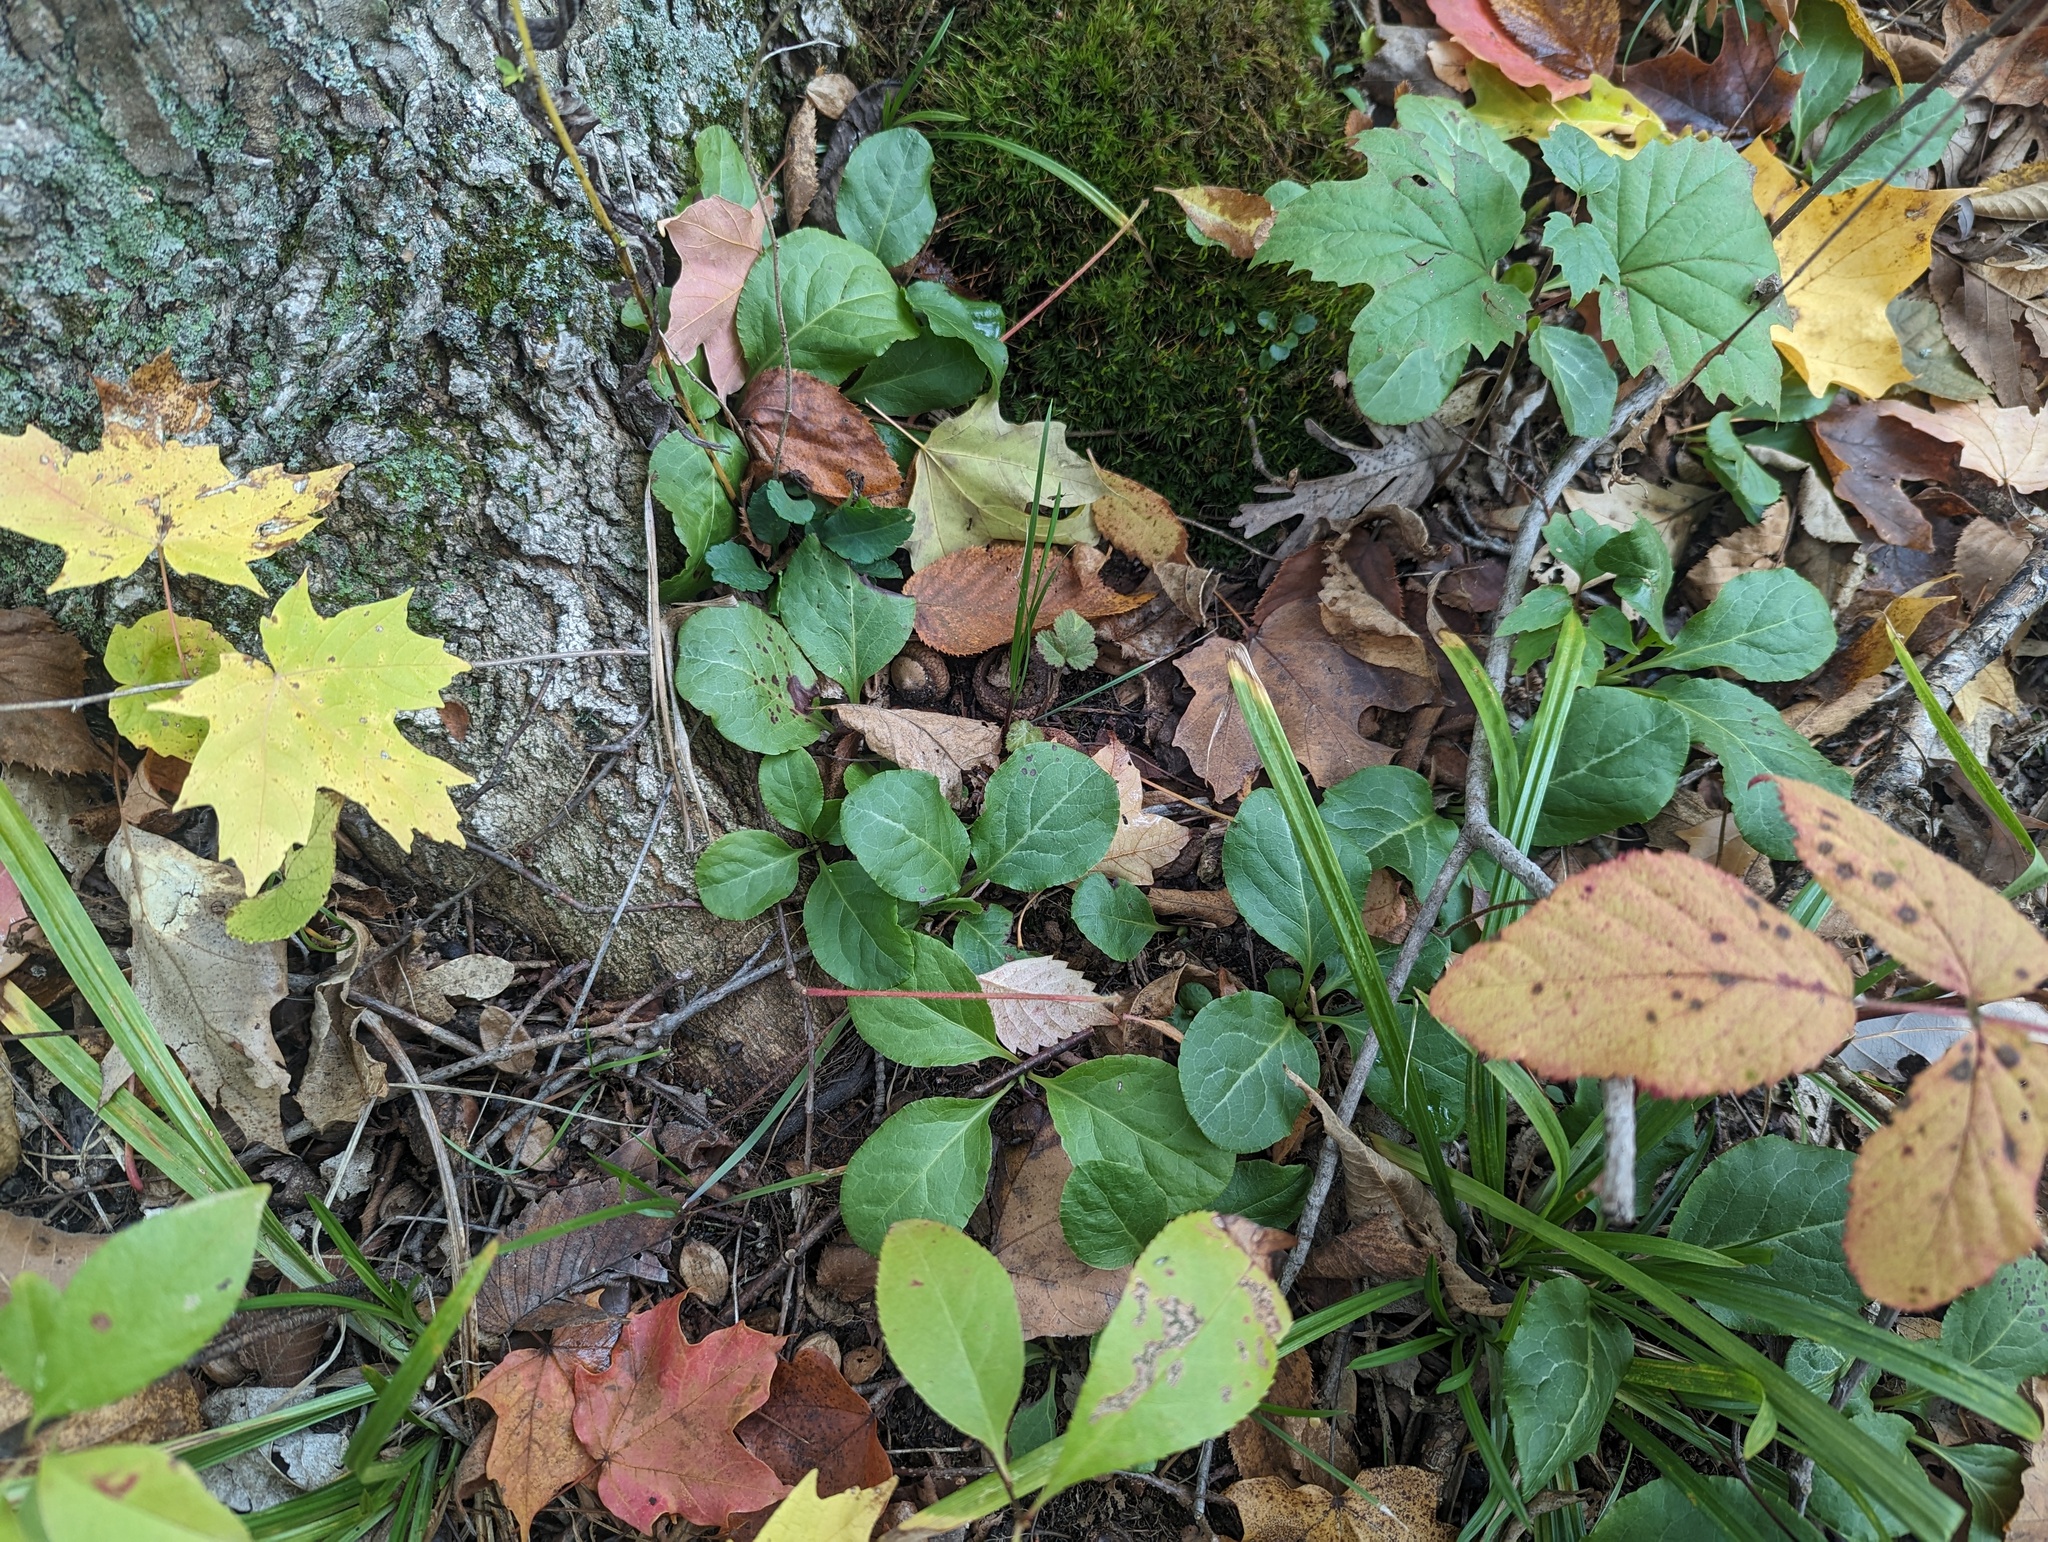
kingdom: Plantae
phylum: Tracheophyta
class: Magnoliopsida
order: Ericales
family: Ericaceae
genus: Pyrola
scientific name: Pyrola elliptica
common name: Shinleaf
